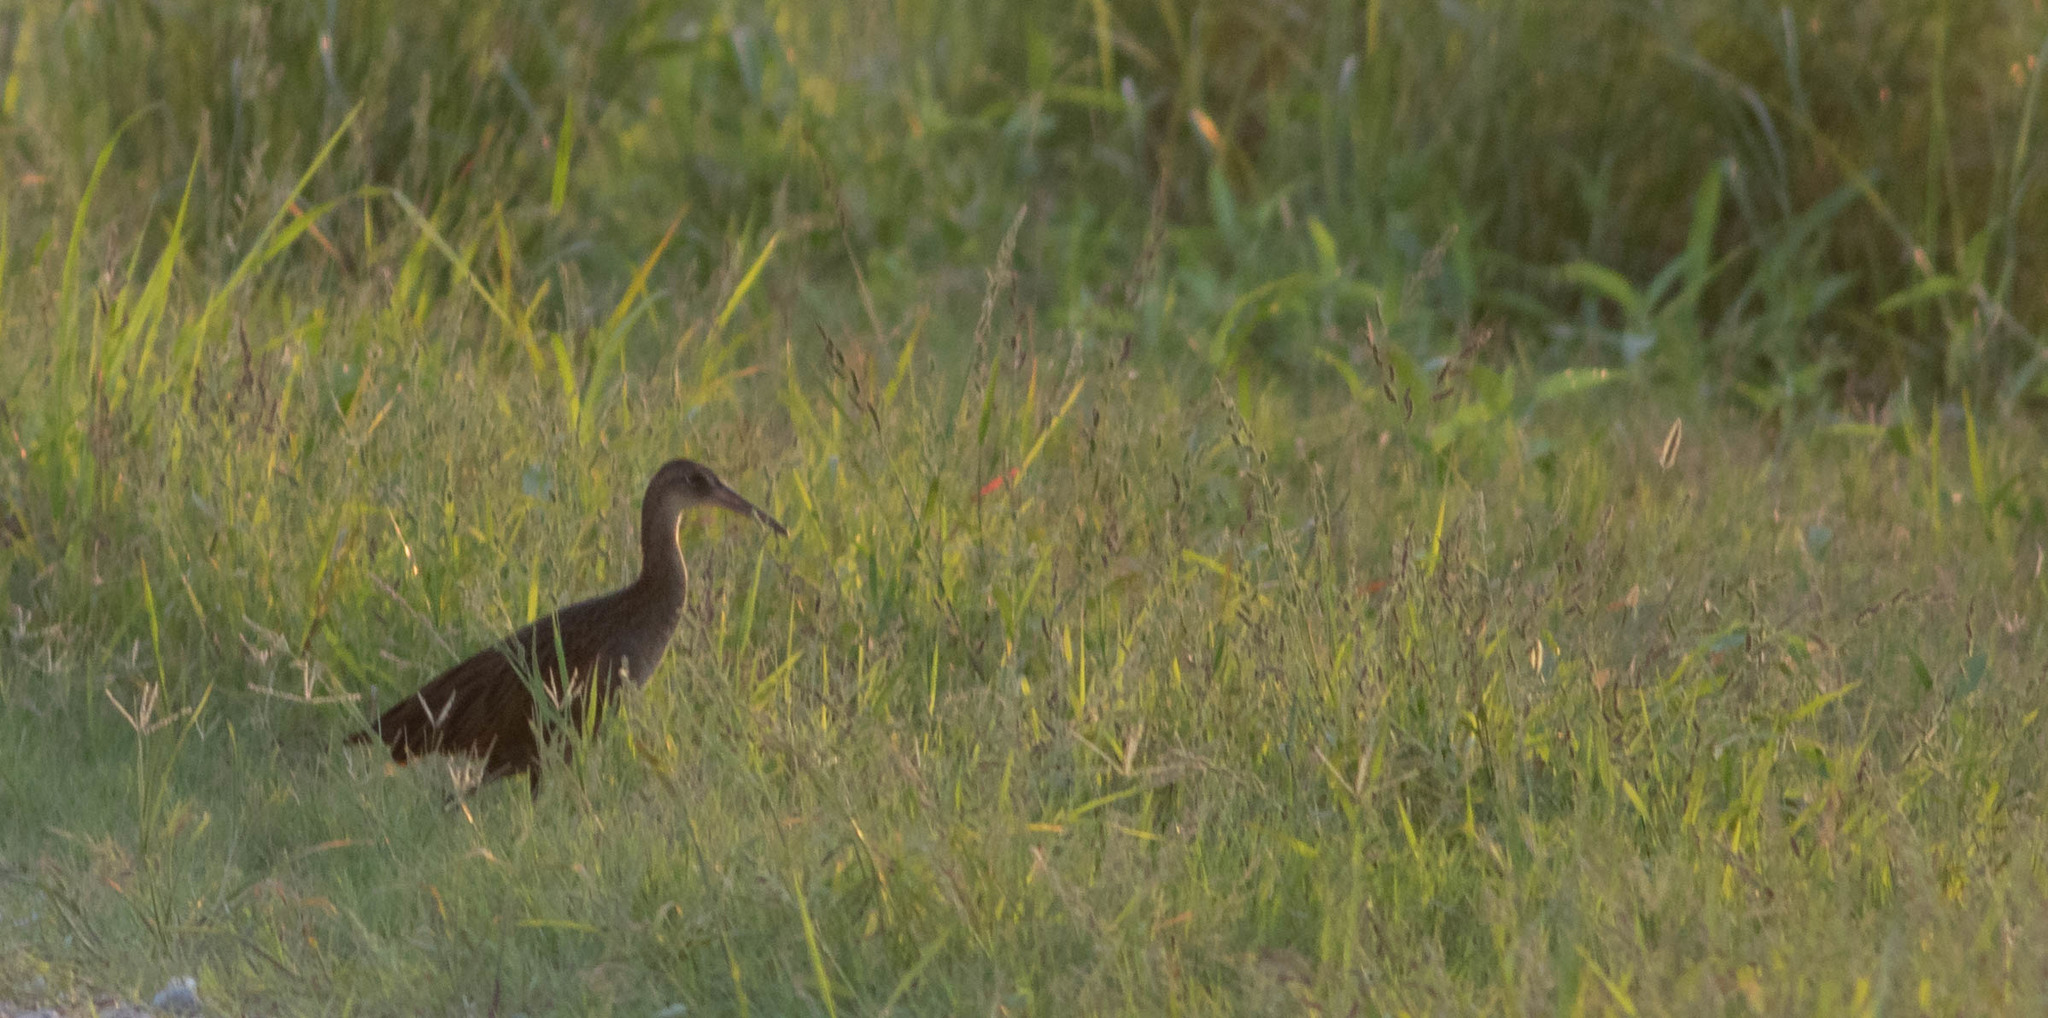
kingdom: Animalia
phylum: Chordata
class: Aves
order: Gruiformes
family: Rallidae
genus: Rallus
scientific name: Rallus elegans
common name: King rail
